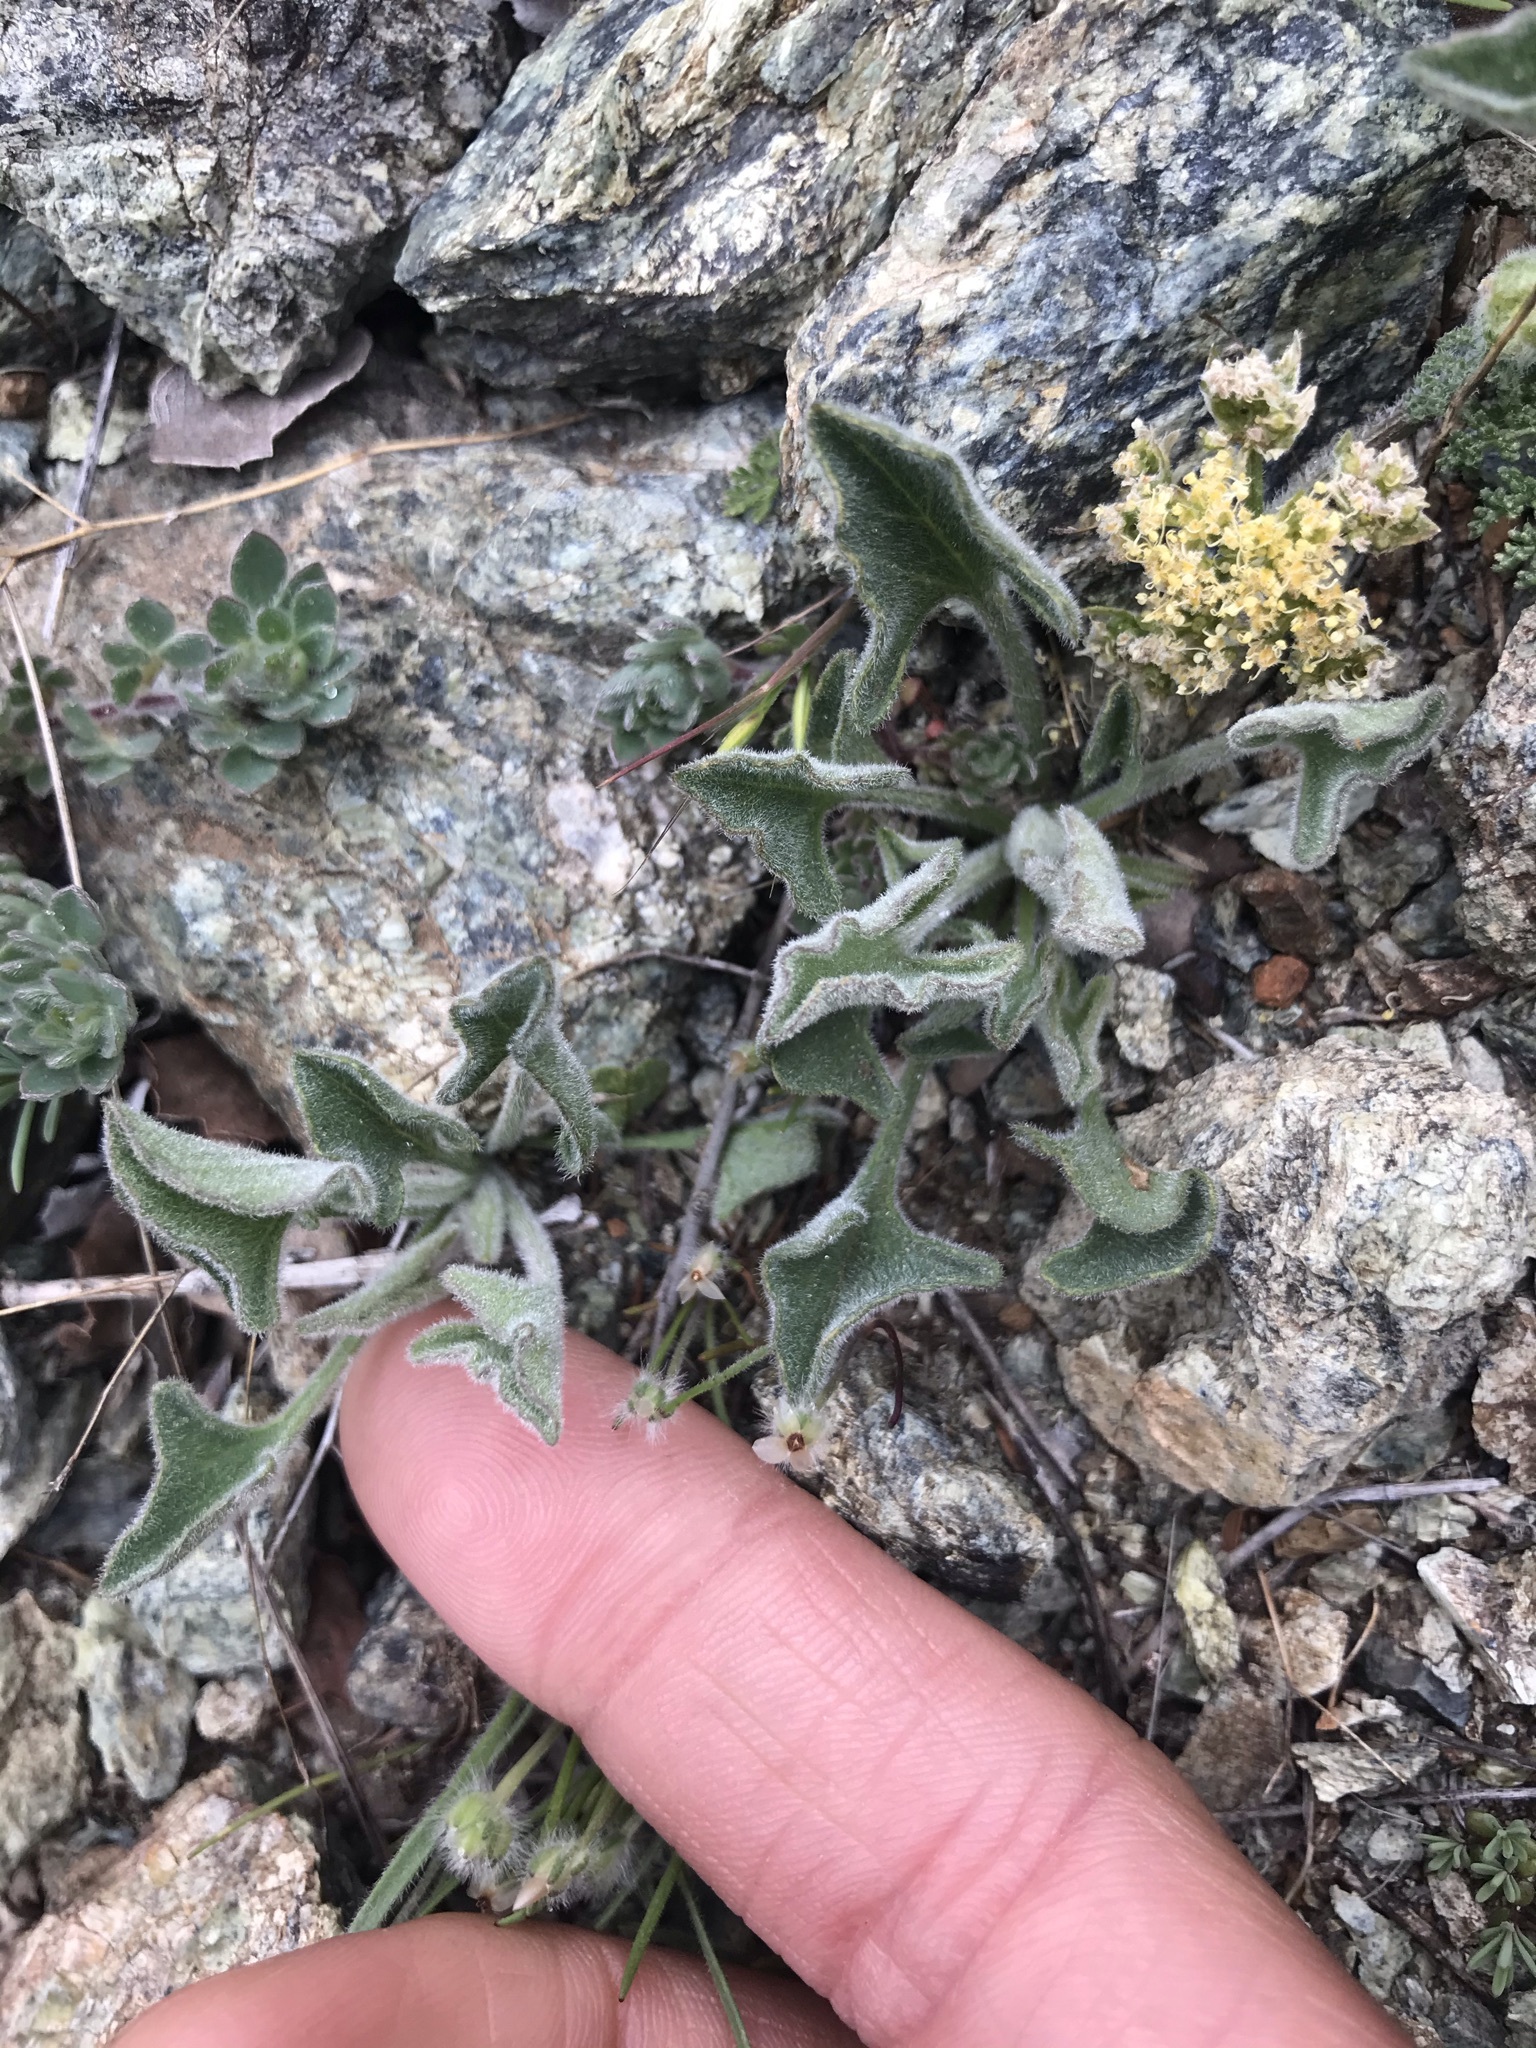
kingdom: Plantae
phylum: Tracheophyta
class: Magnoliopsida
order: Solanales
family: Convolvulaceae
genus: Calystegia
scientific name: Calystegia collina
